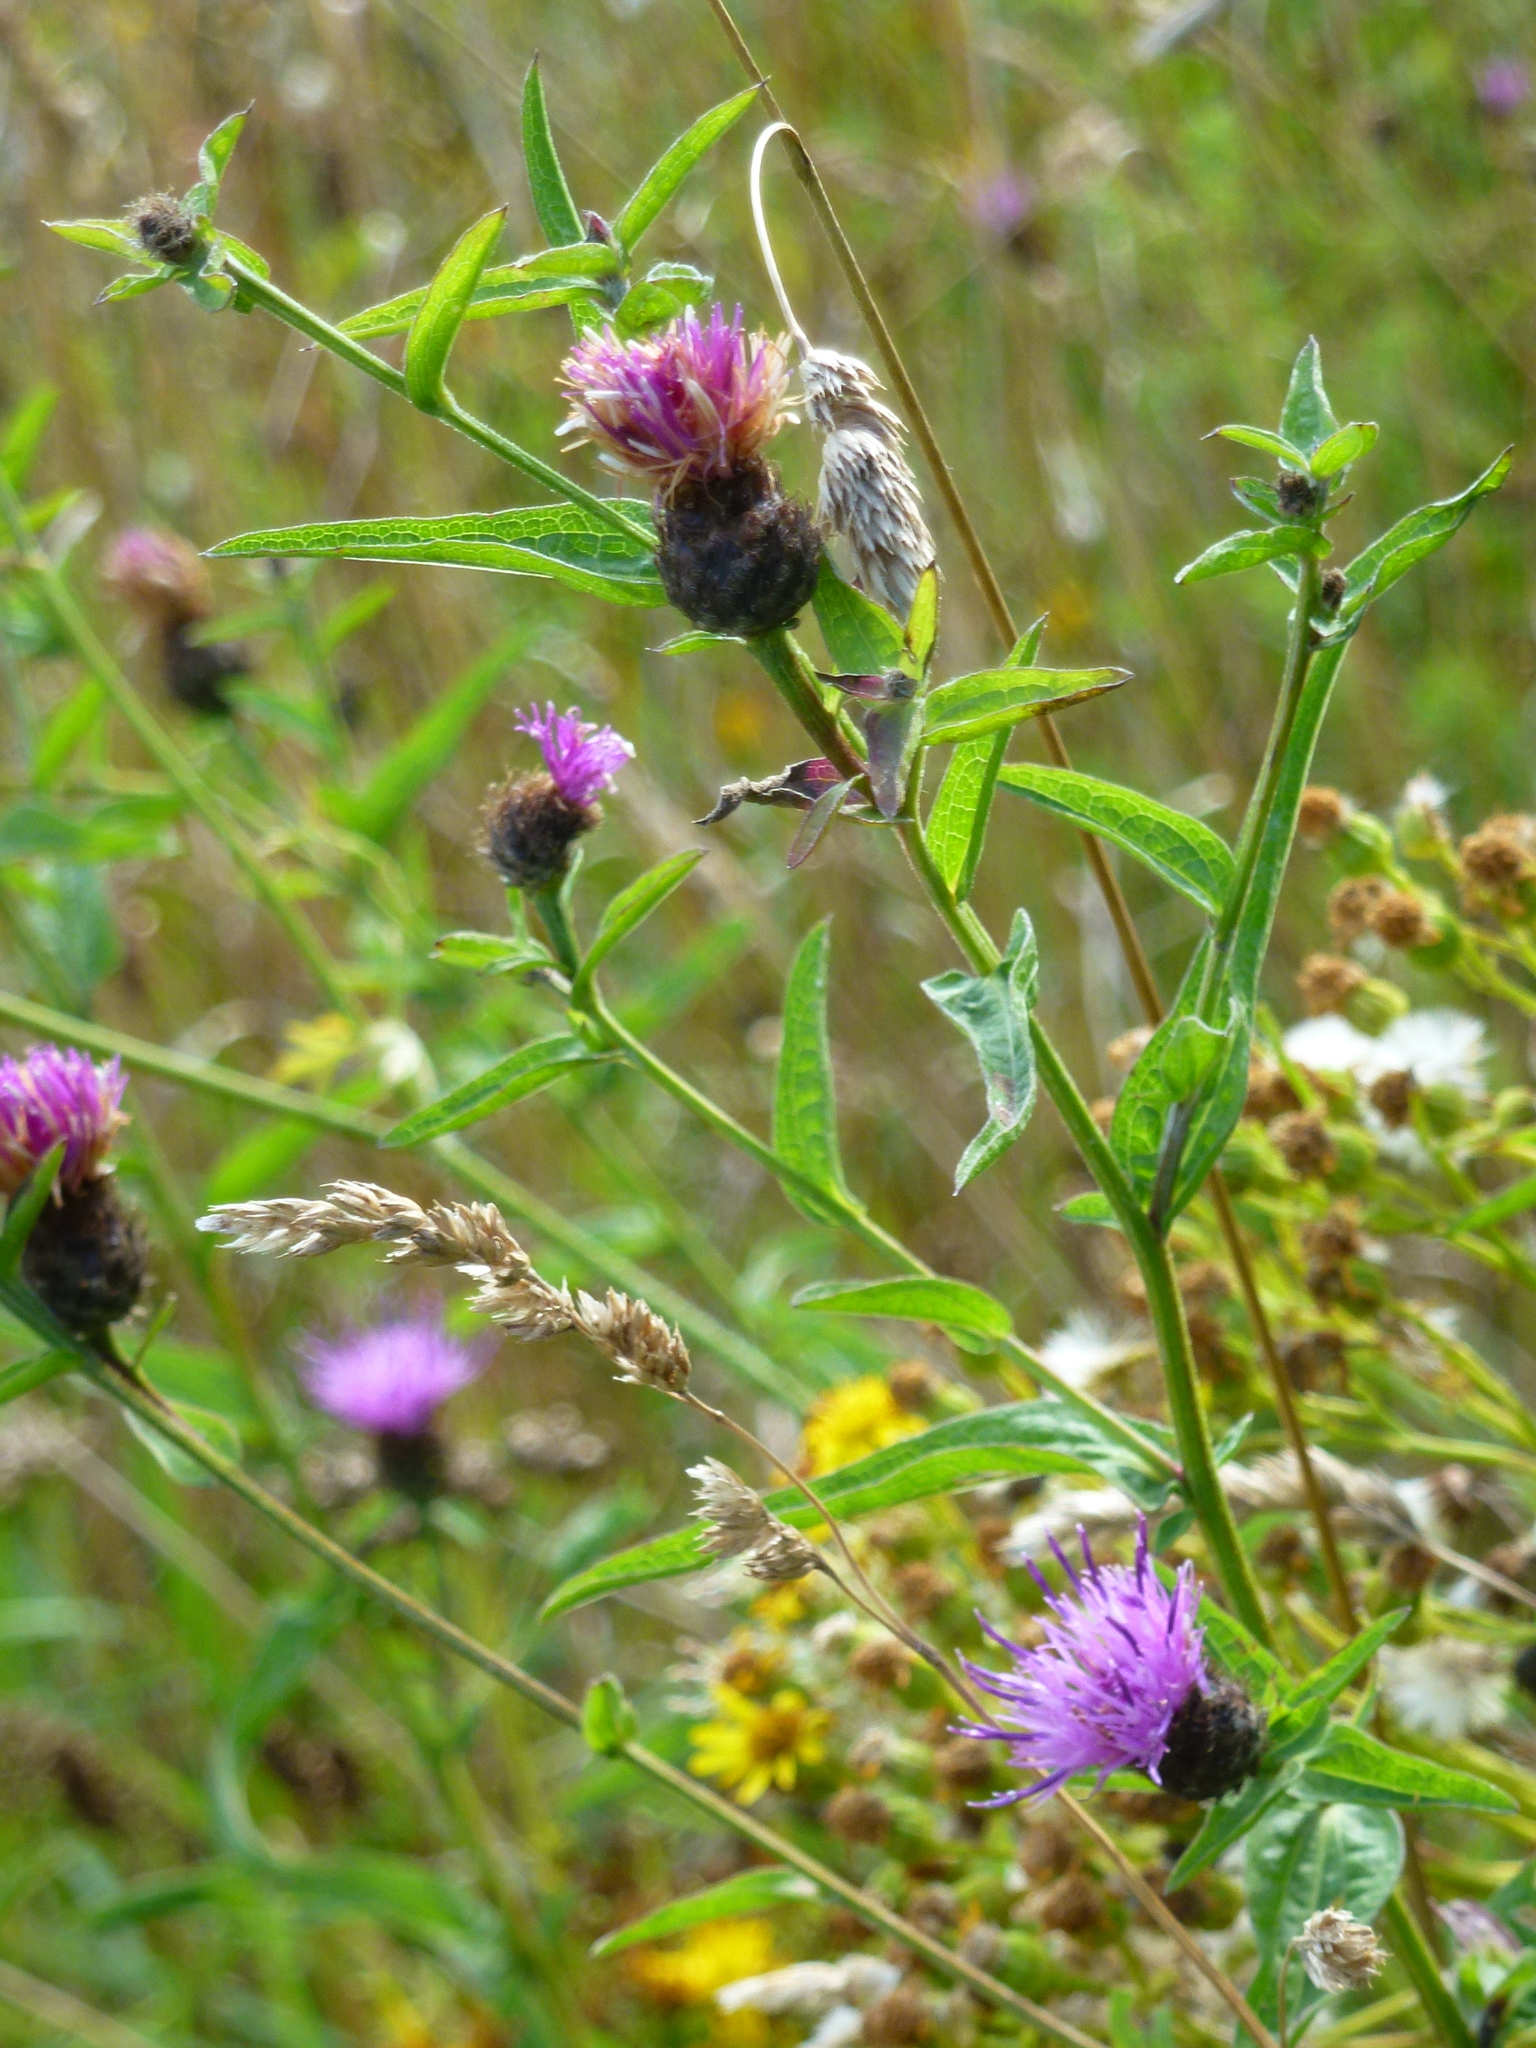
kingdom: Plantae
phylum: Tracheophyta
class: Magnoliopsida
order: Asterales
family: Asteraceae
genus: Centaurea
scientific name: Centaurea nigra
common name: Lesser knapweed
